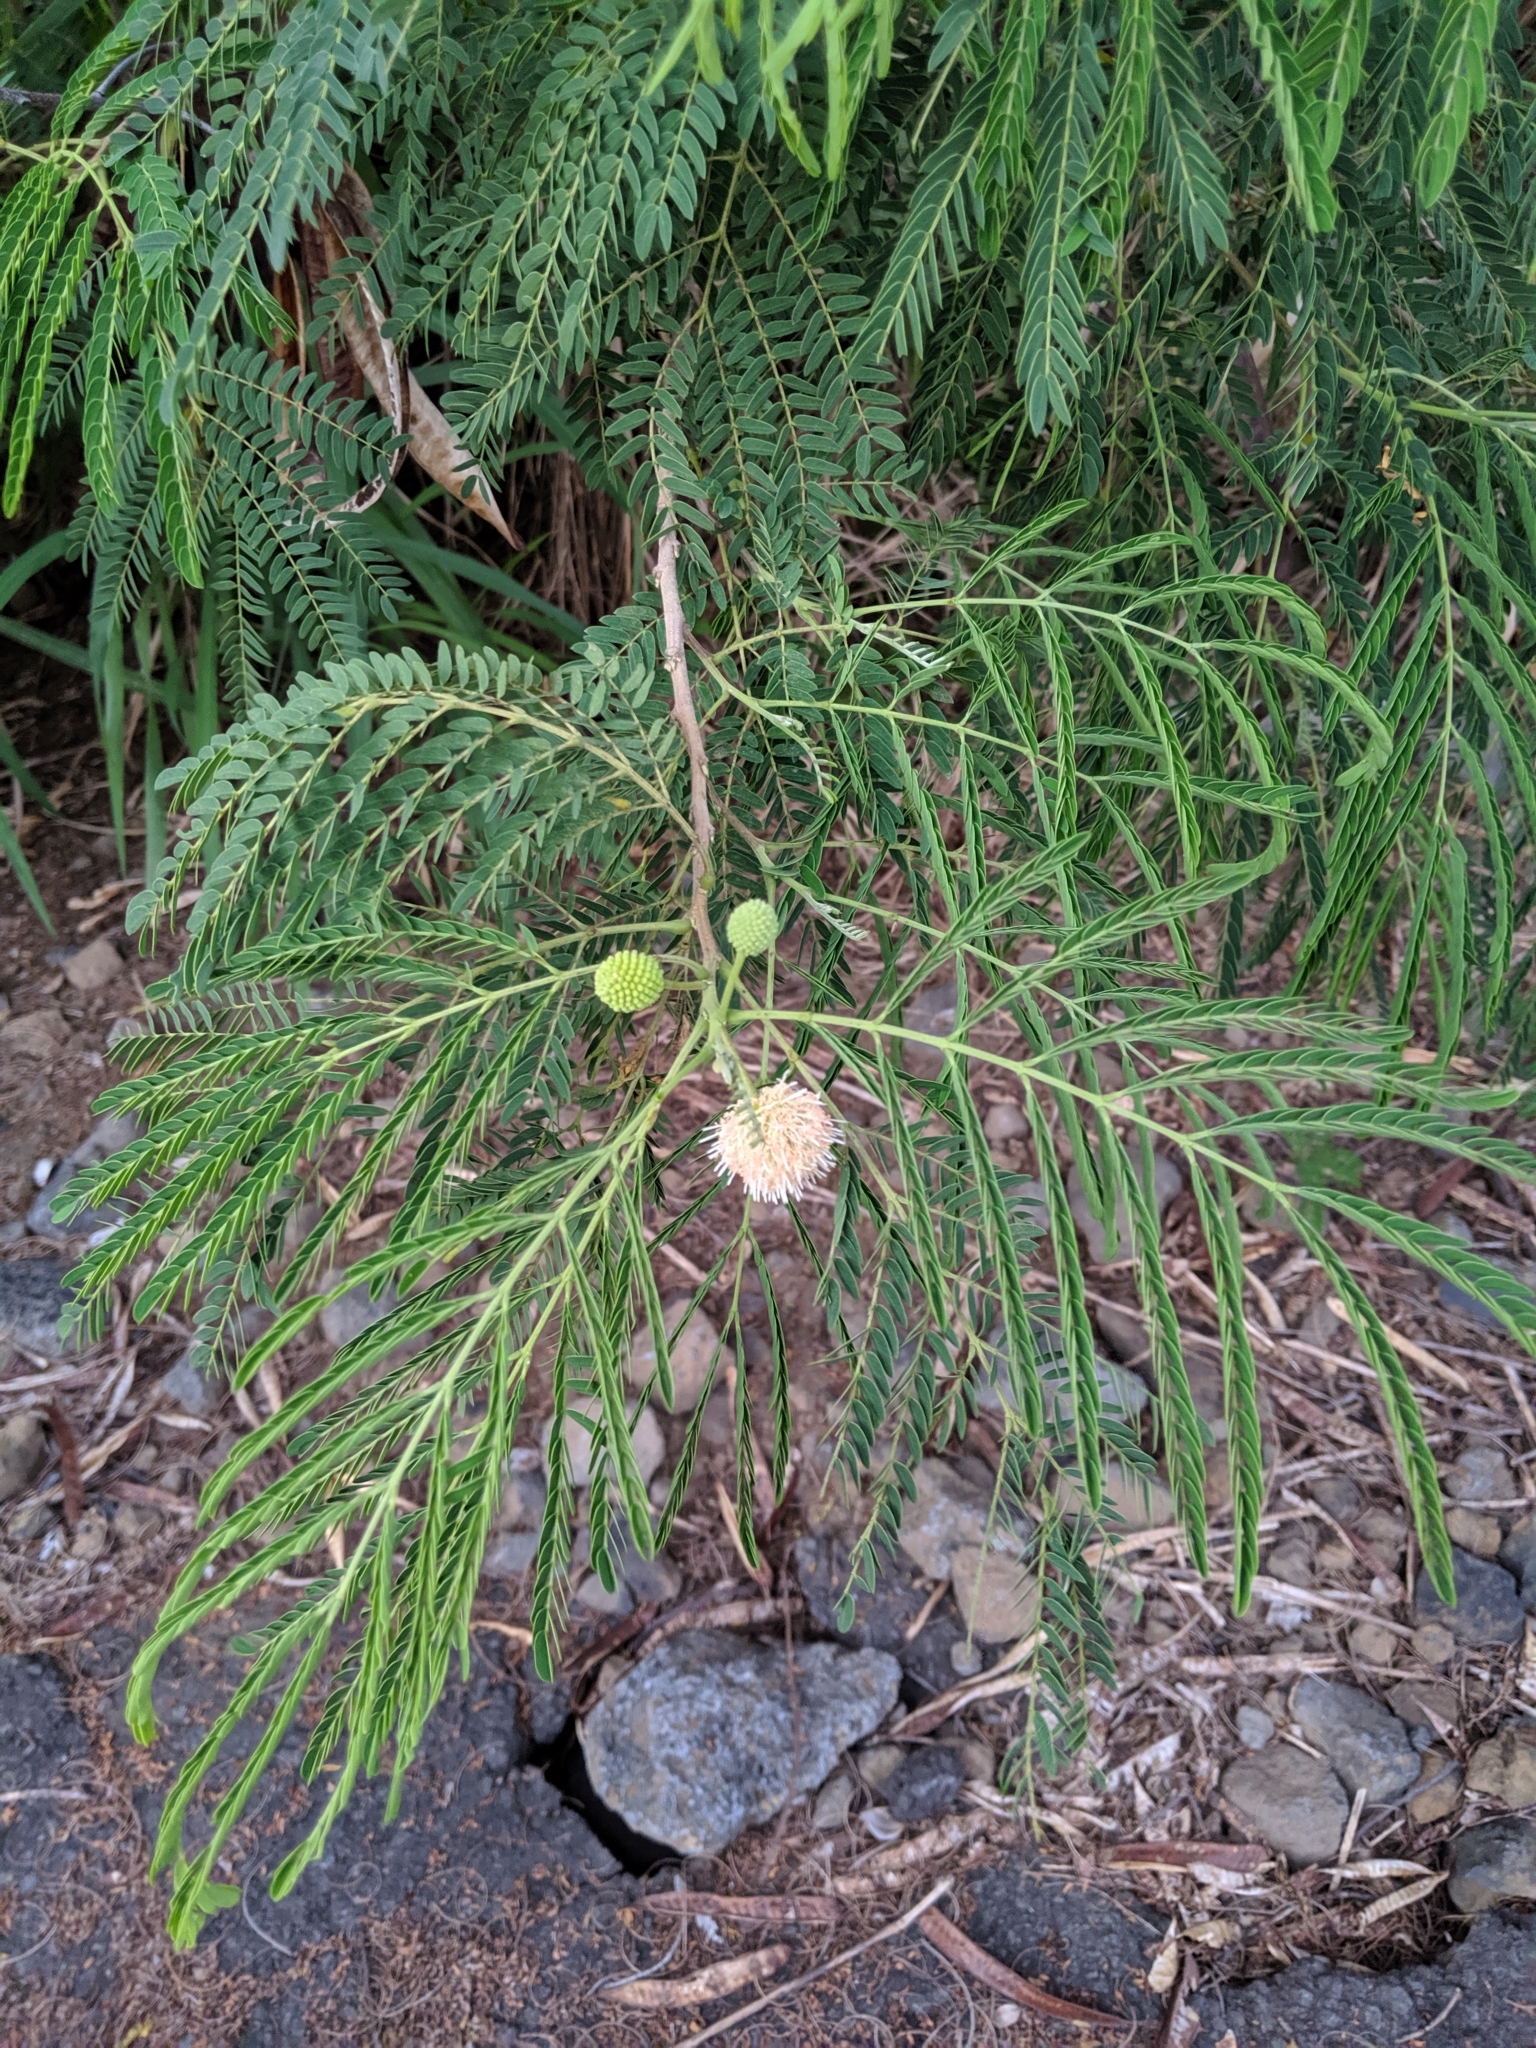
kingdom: Plantae
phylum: Tracheophyta
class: Magnoliopsida
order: Fabales
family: Fabaceae
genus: Leucaena
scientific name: Leucaena leucocephala
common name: White leadtree
